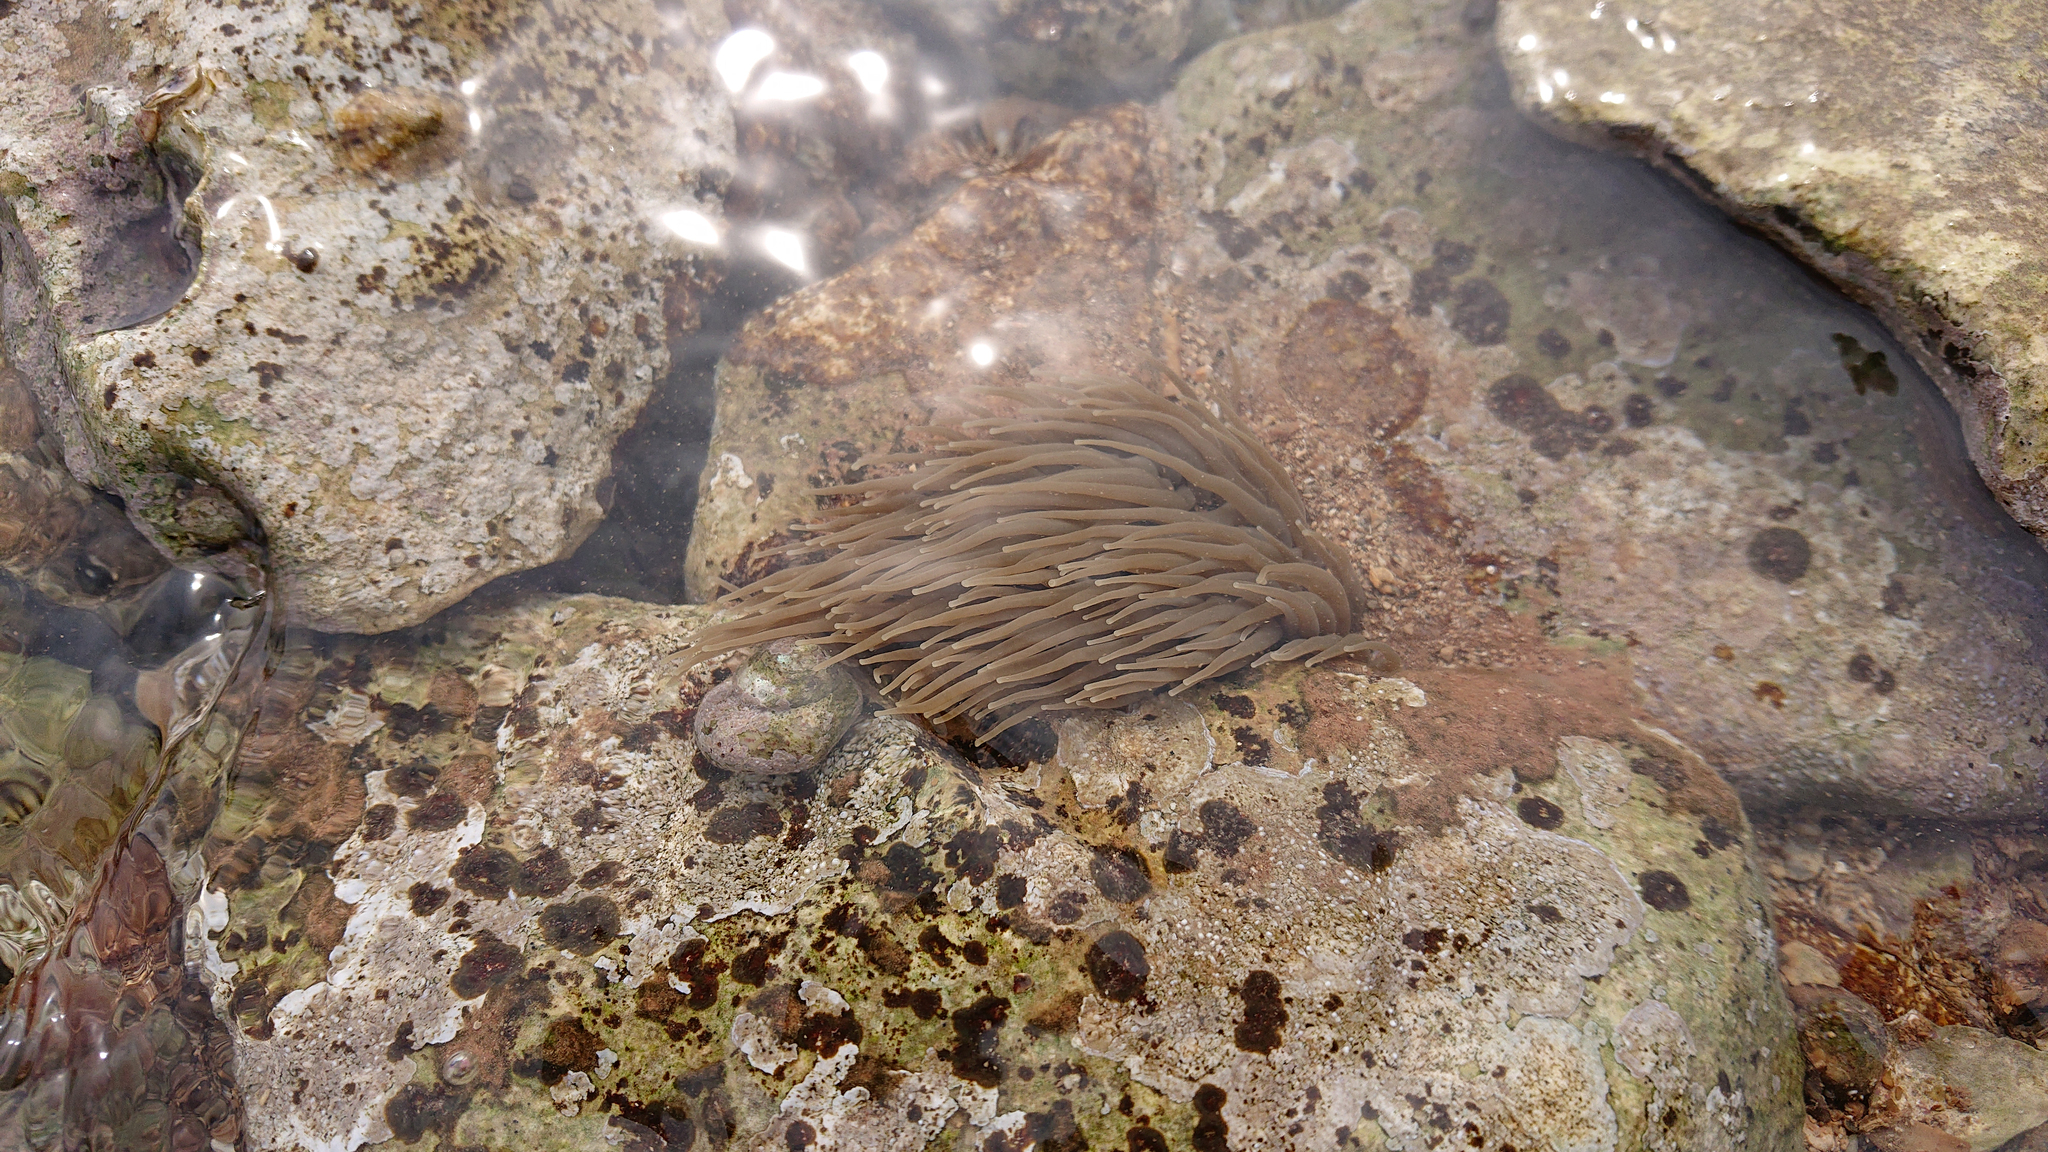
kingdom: Animalia
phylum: Cnidaria
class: Anthozoa
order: Actiniaria
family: Actiniidae
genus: Anemonia
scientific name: Anemonia viridis
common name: Snakelocks anemone
